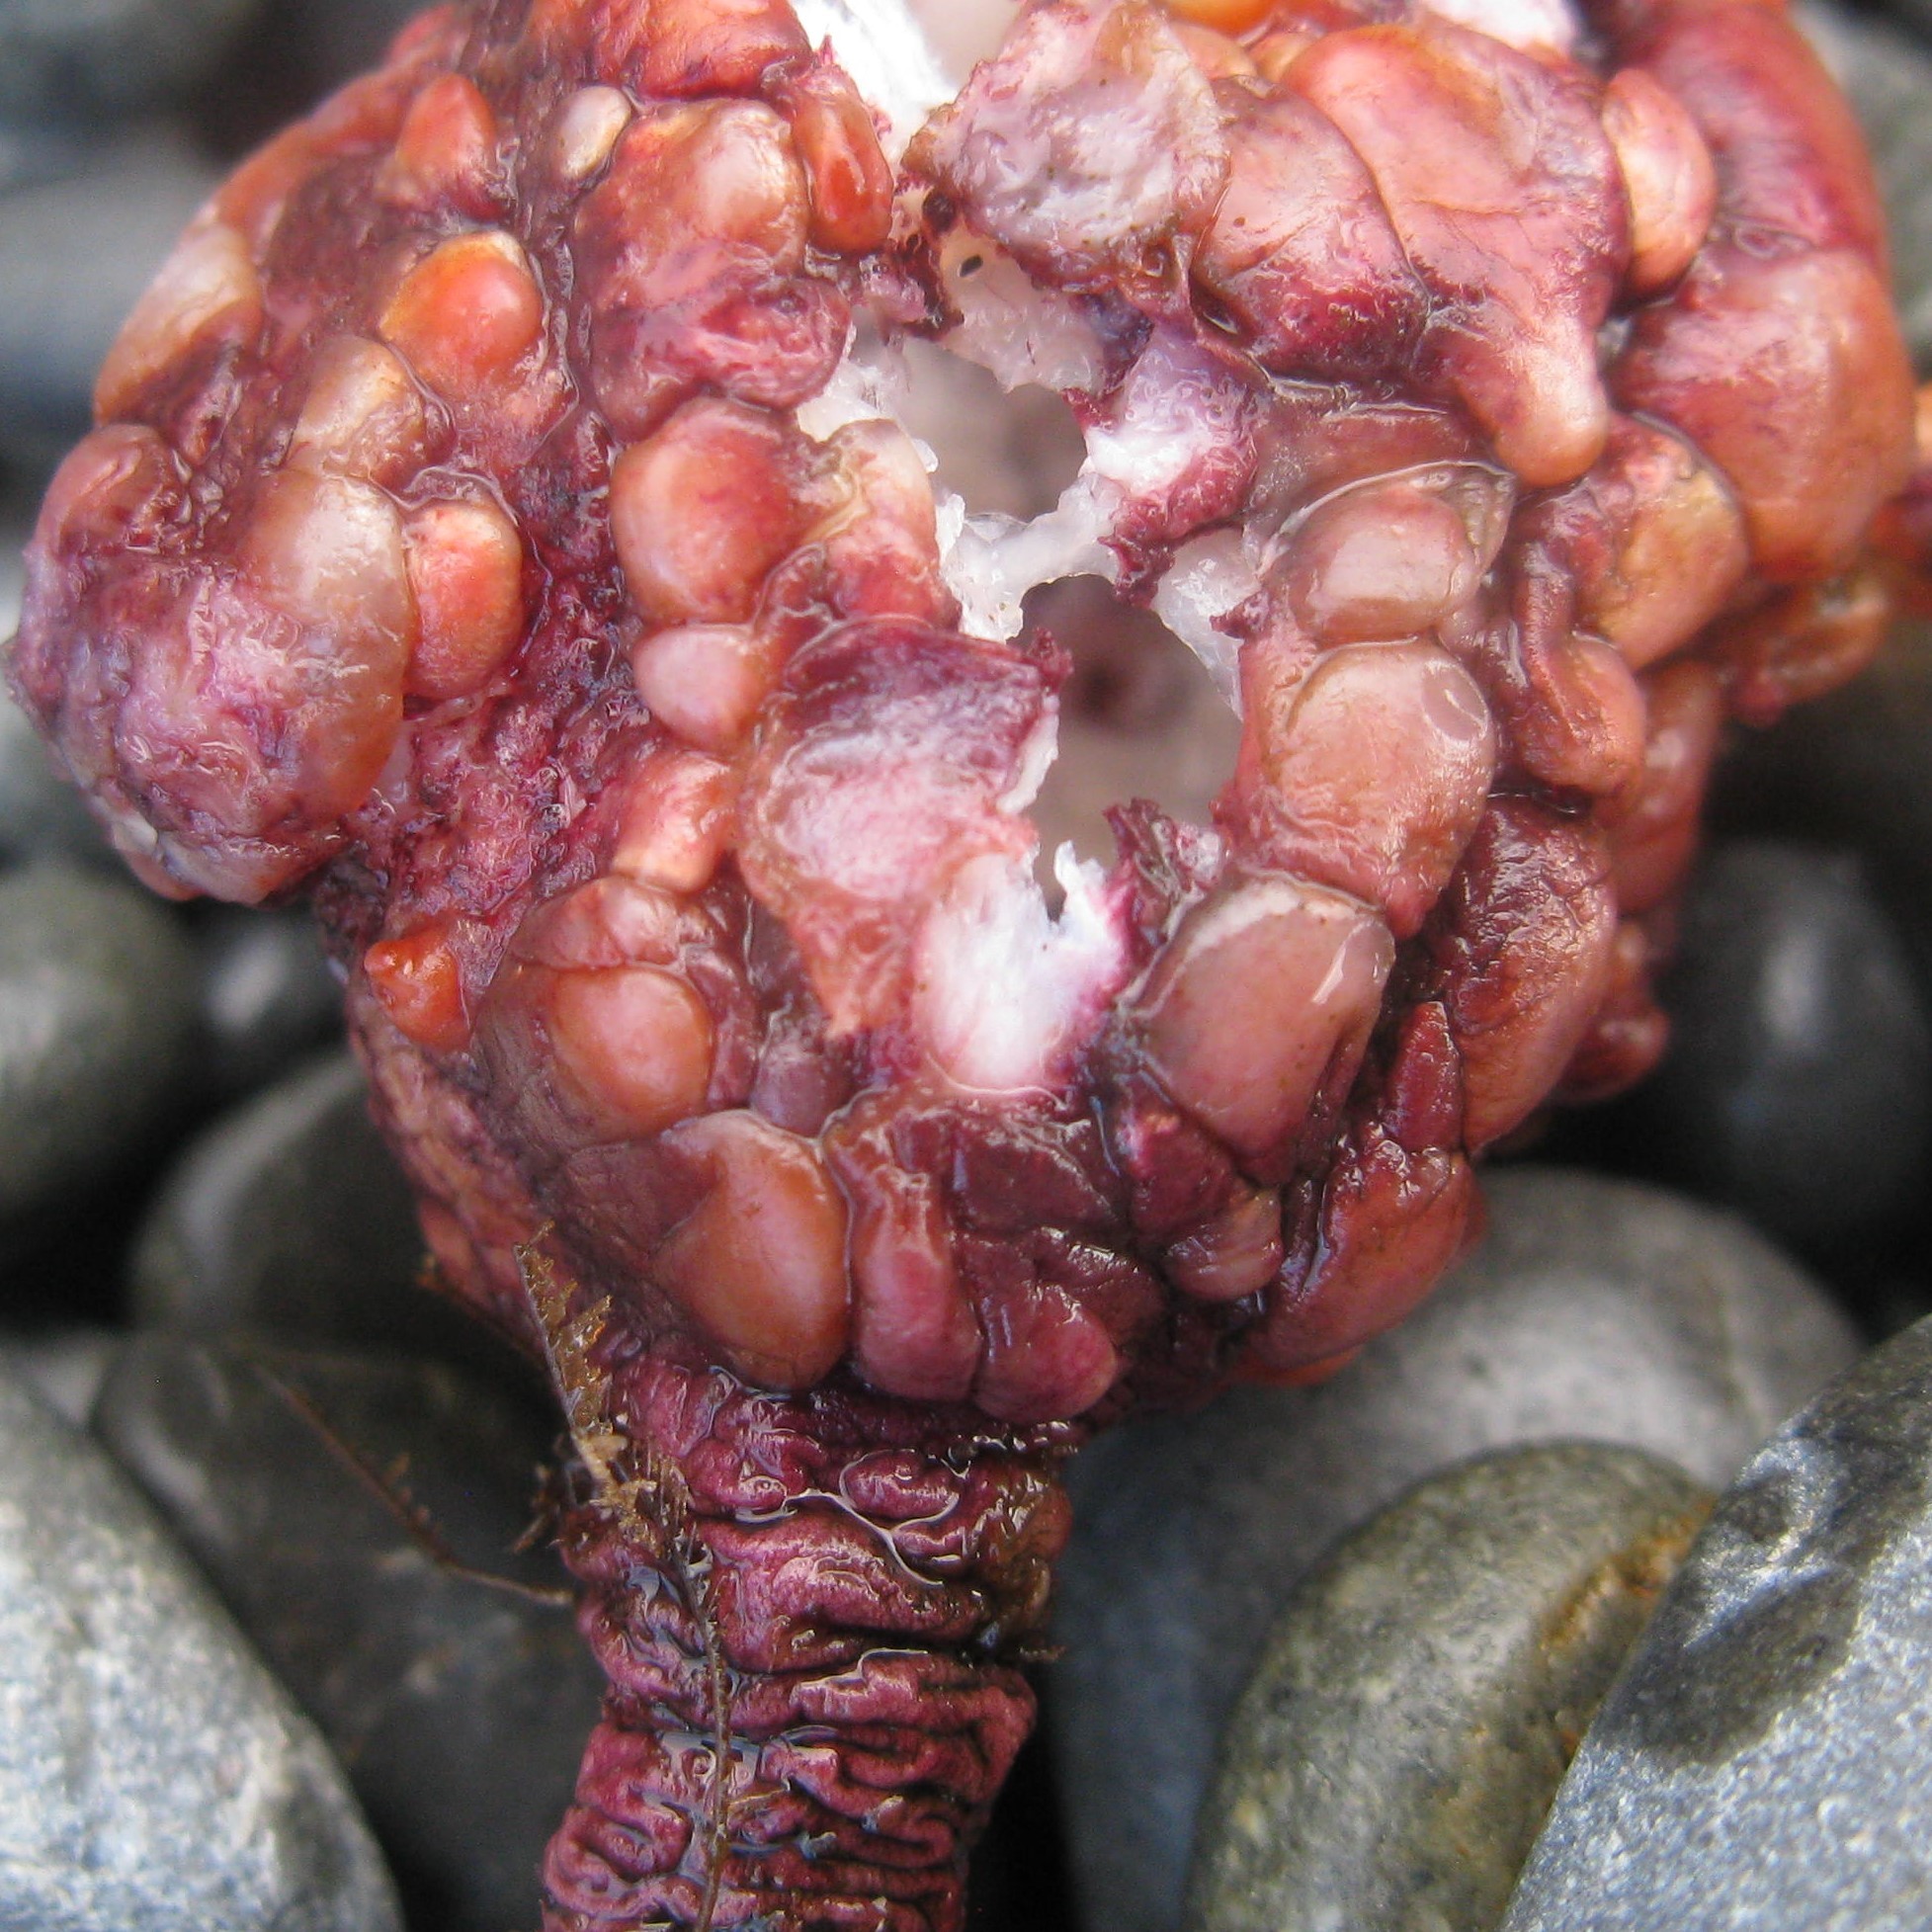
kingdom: Animalia
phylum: Chordata
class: Ascidiacea
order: Stolidobranchia
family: Pyuridae
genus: Pyura
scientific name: Pyura pachydermatina
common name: Sea tulip
